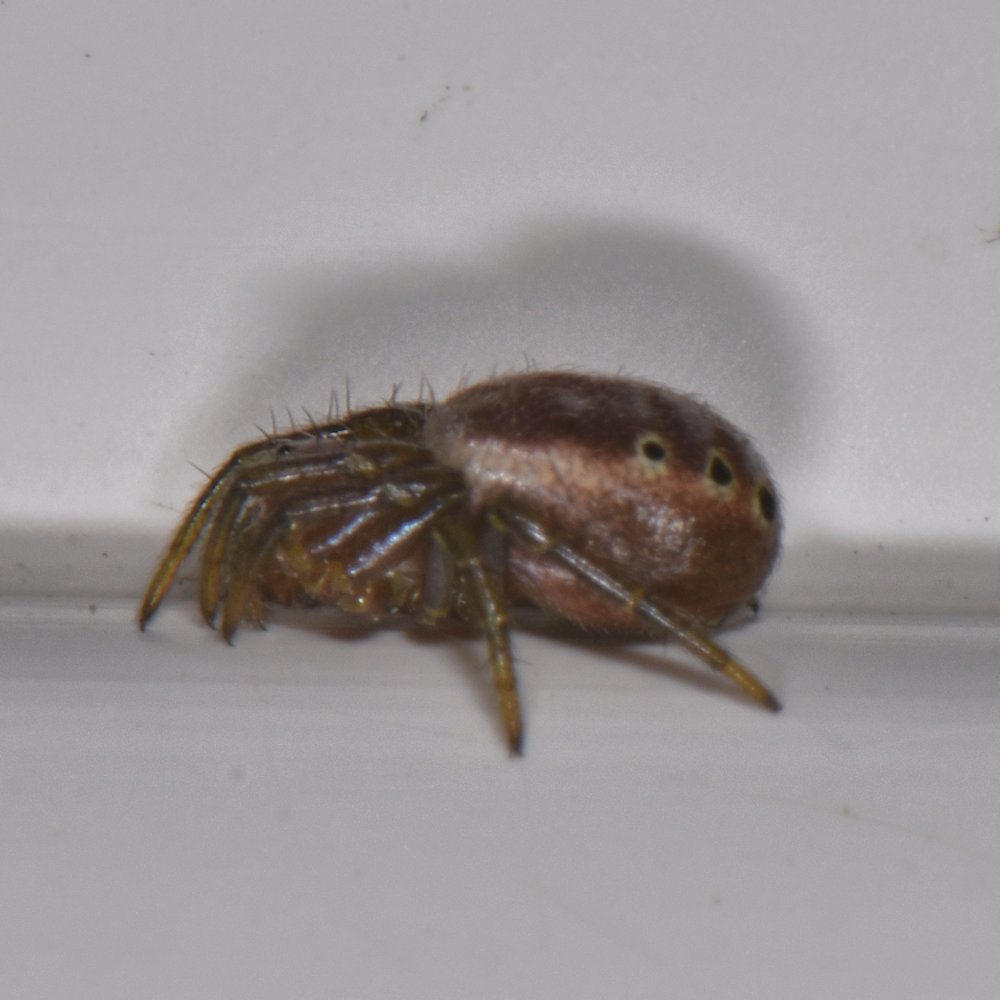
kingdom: Animalia
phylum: Arthropoda
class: Arachnida
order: Araneae
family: Araneidae
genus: Araniella
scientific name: Araniella displicata
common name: Sixspotted orb weaver
